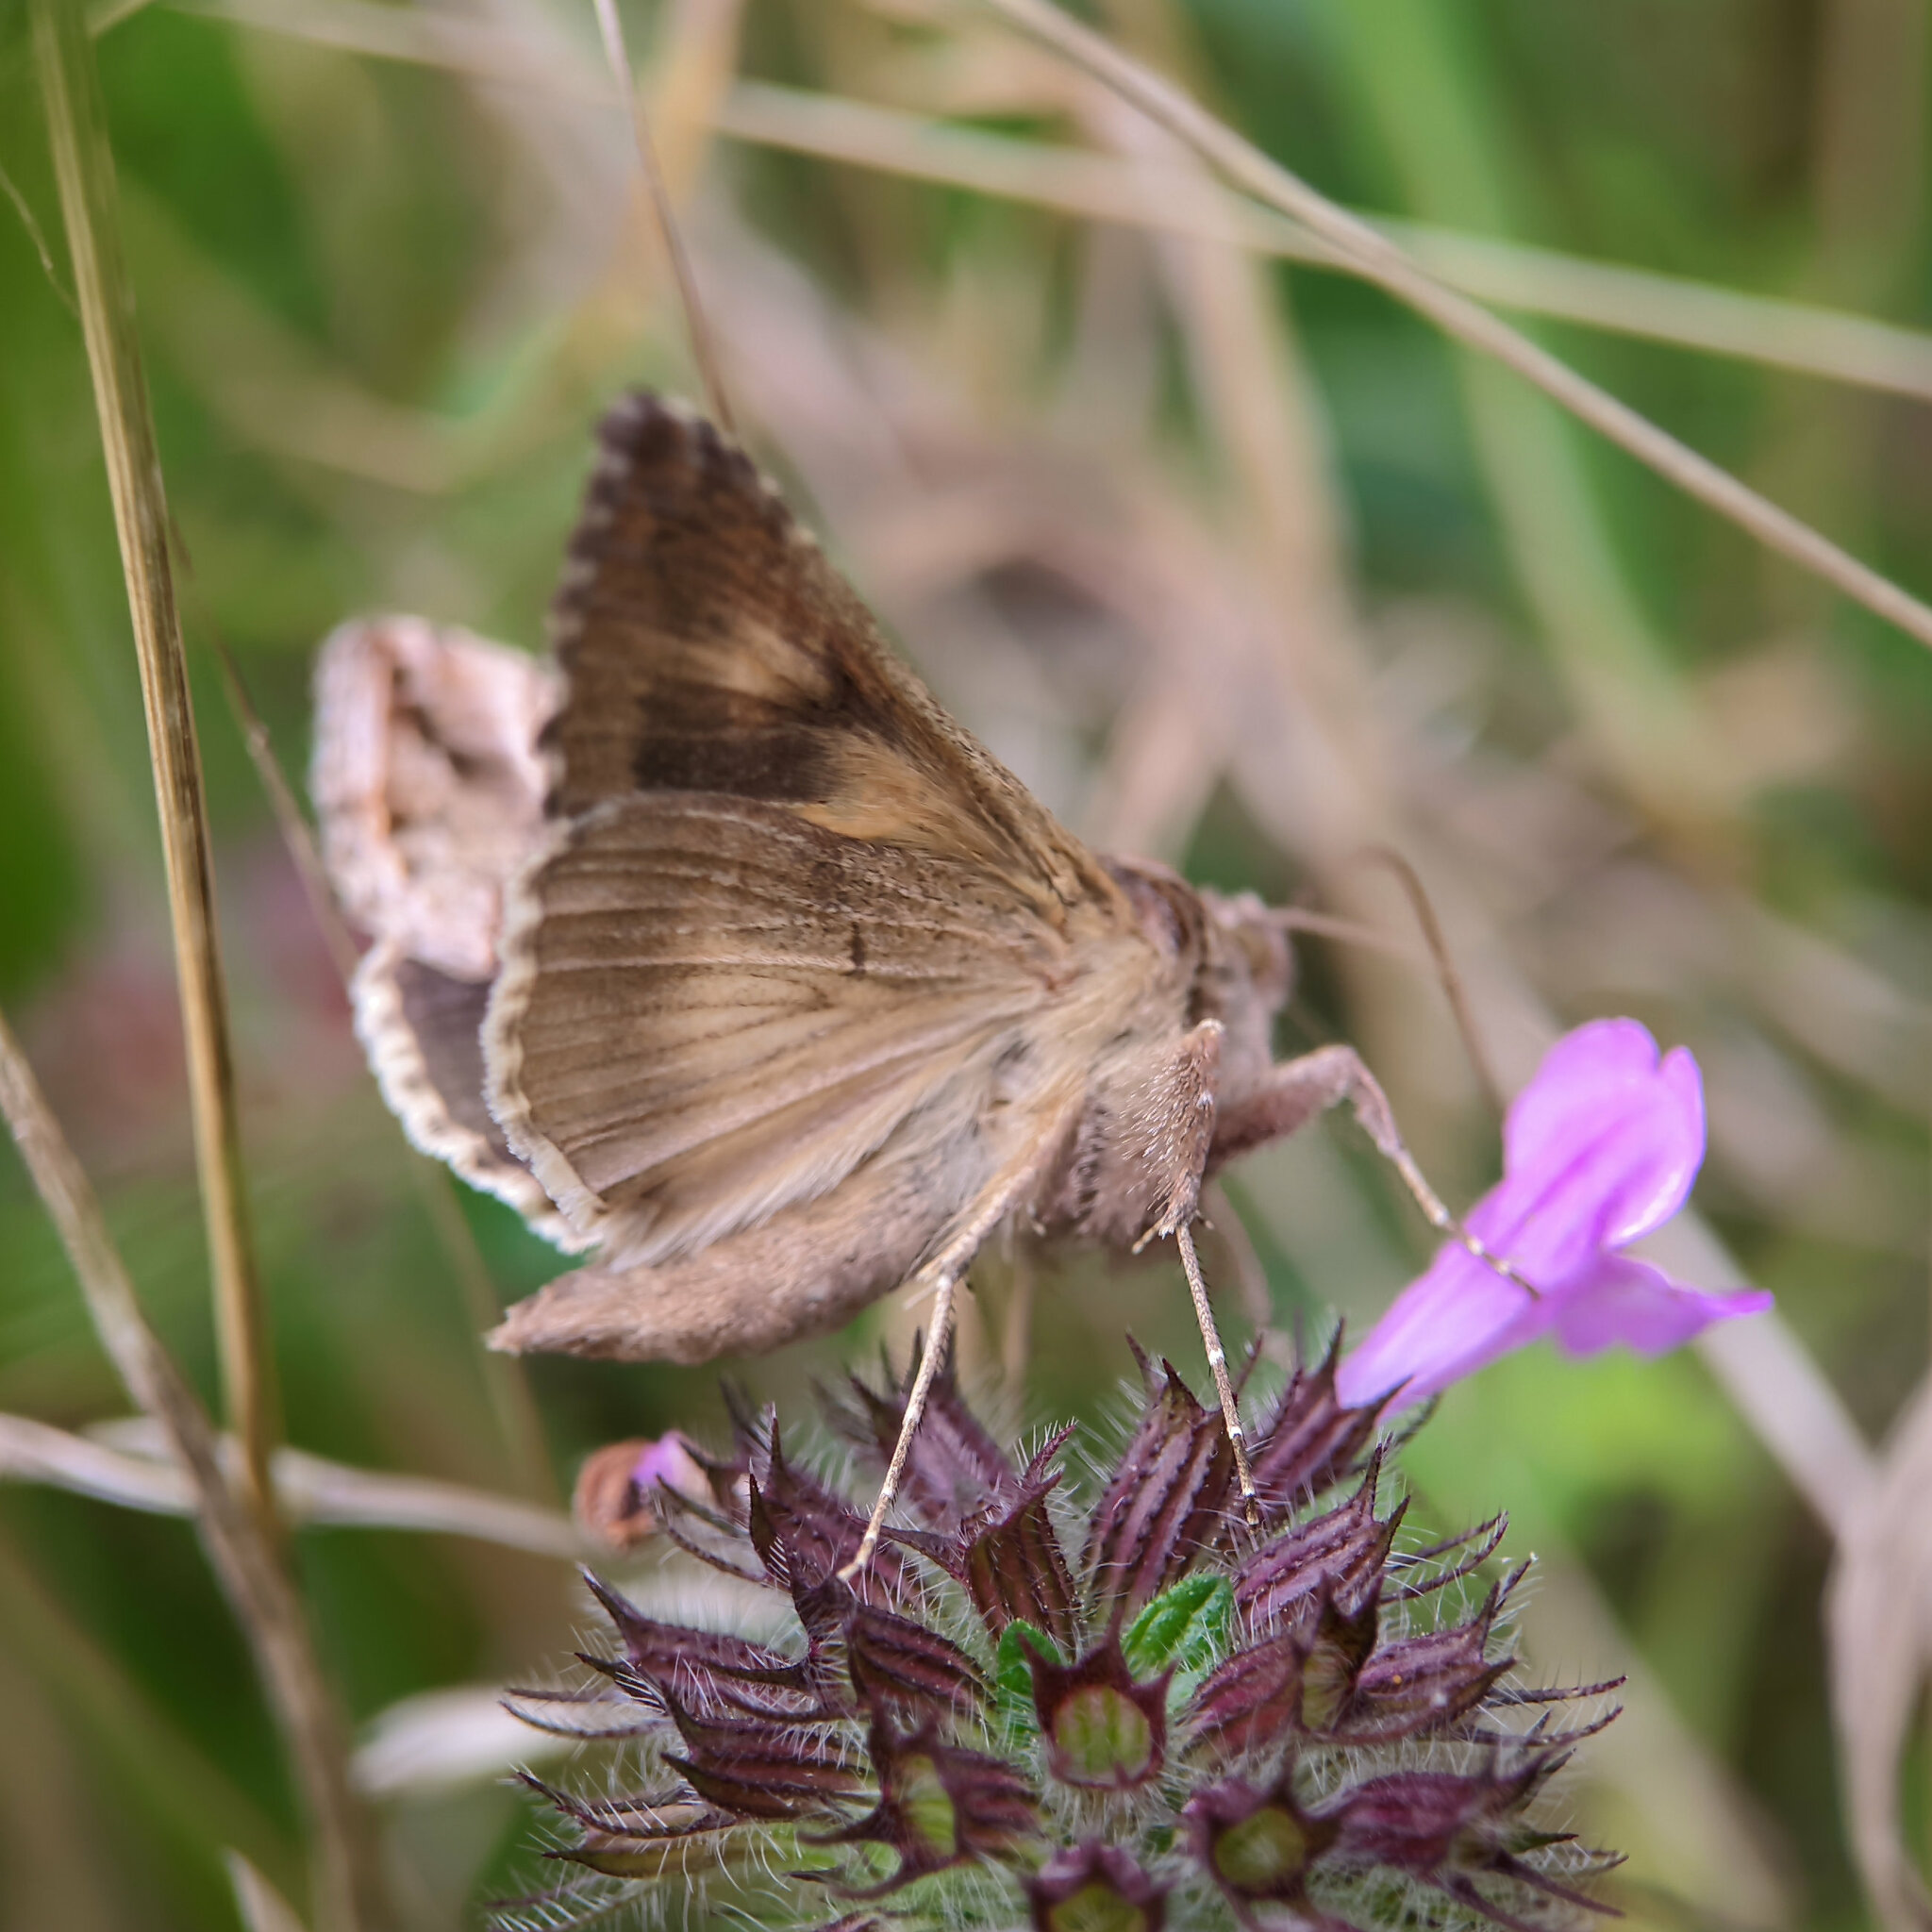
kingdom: Animalia
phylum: Arthropoda
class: Insecta
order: Lepidoptera
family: Noctuidae
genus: Autographa
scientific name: Autographa gamma
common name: Silver y
